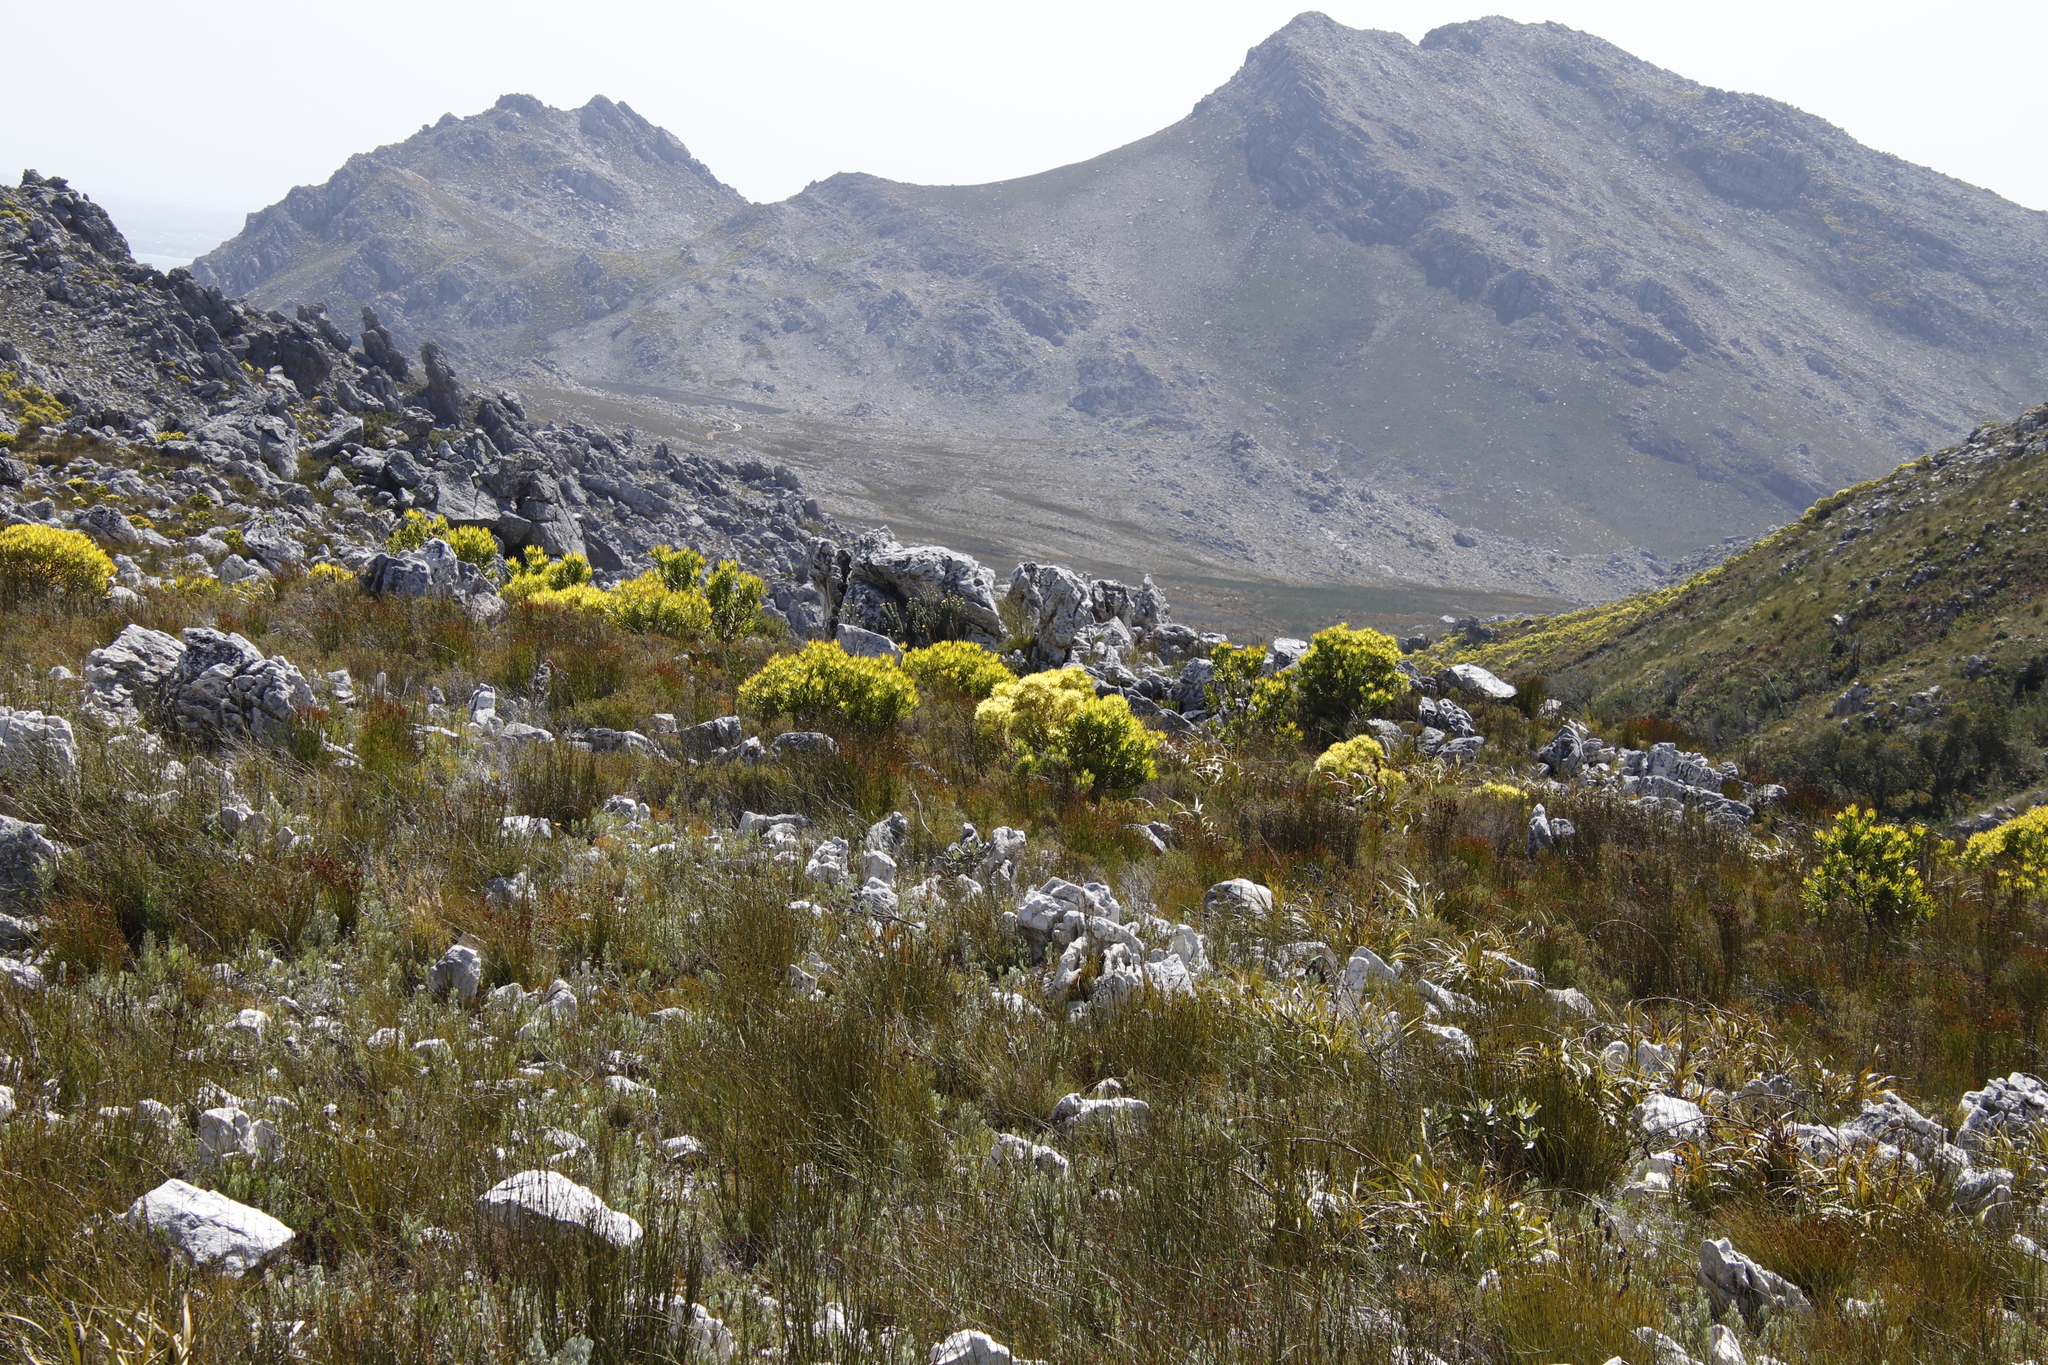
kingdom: Plantae
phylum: Tracheophyta
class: Magnoliopsida
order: Proteales
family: Proteaceae
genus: Leucadendron
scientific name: Leucadendron microcephalum
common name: Oilbract conebush
